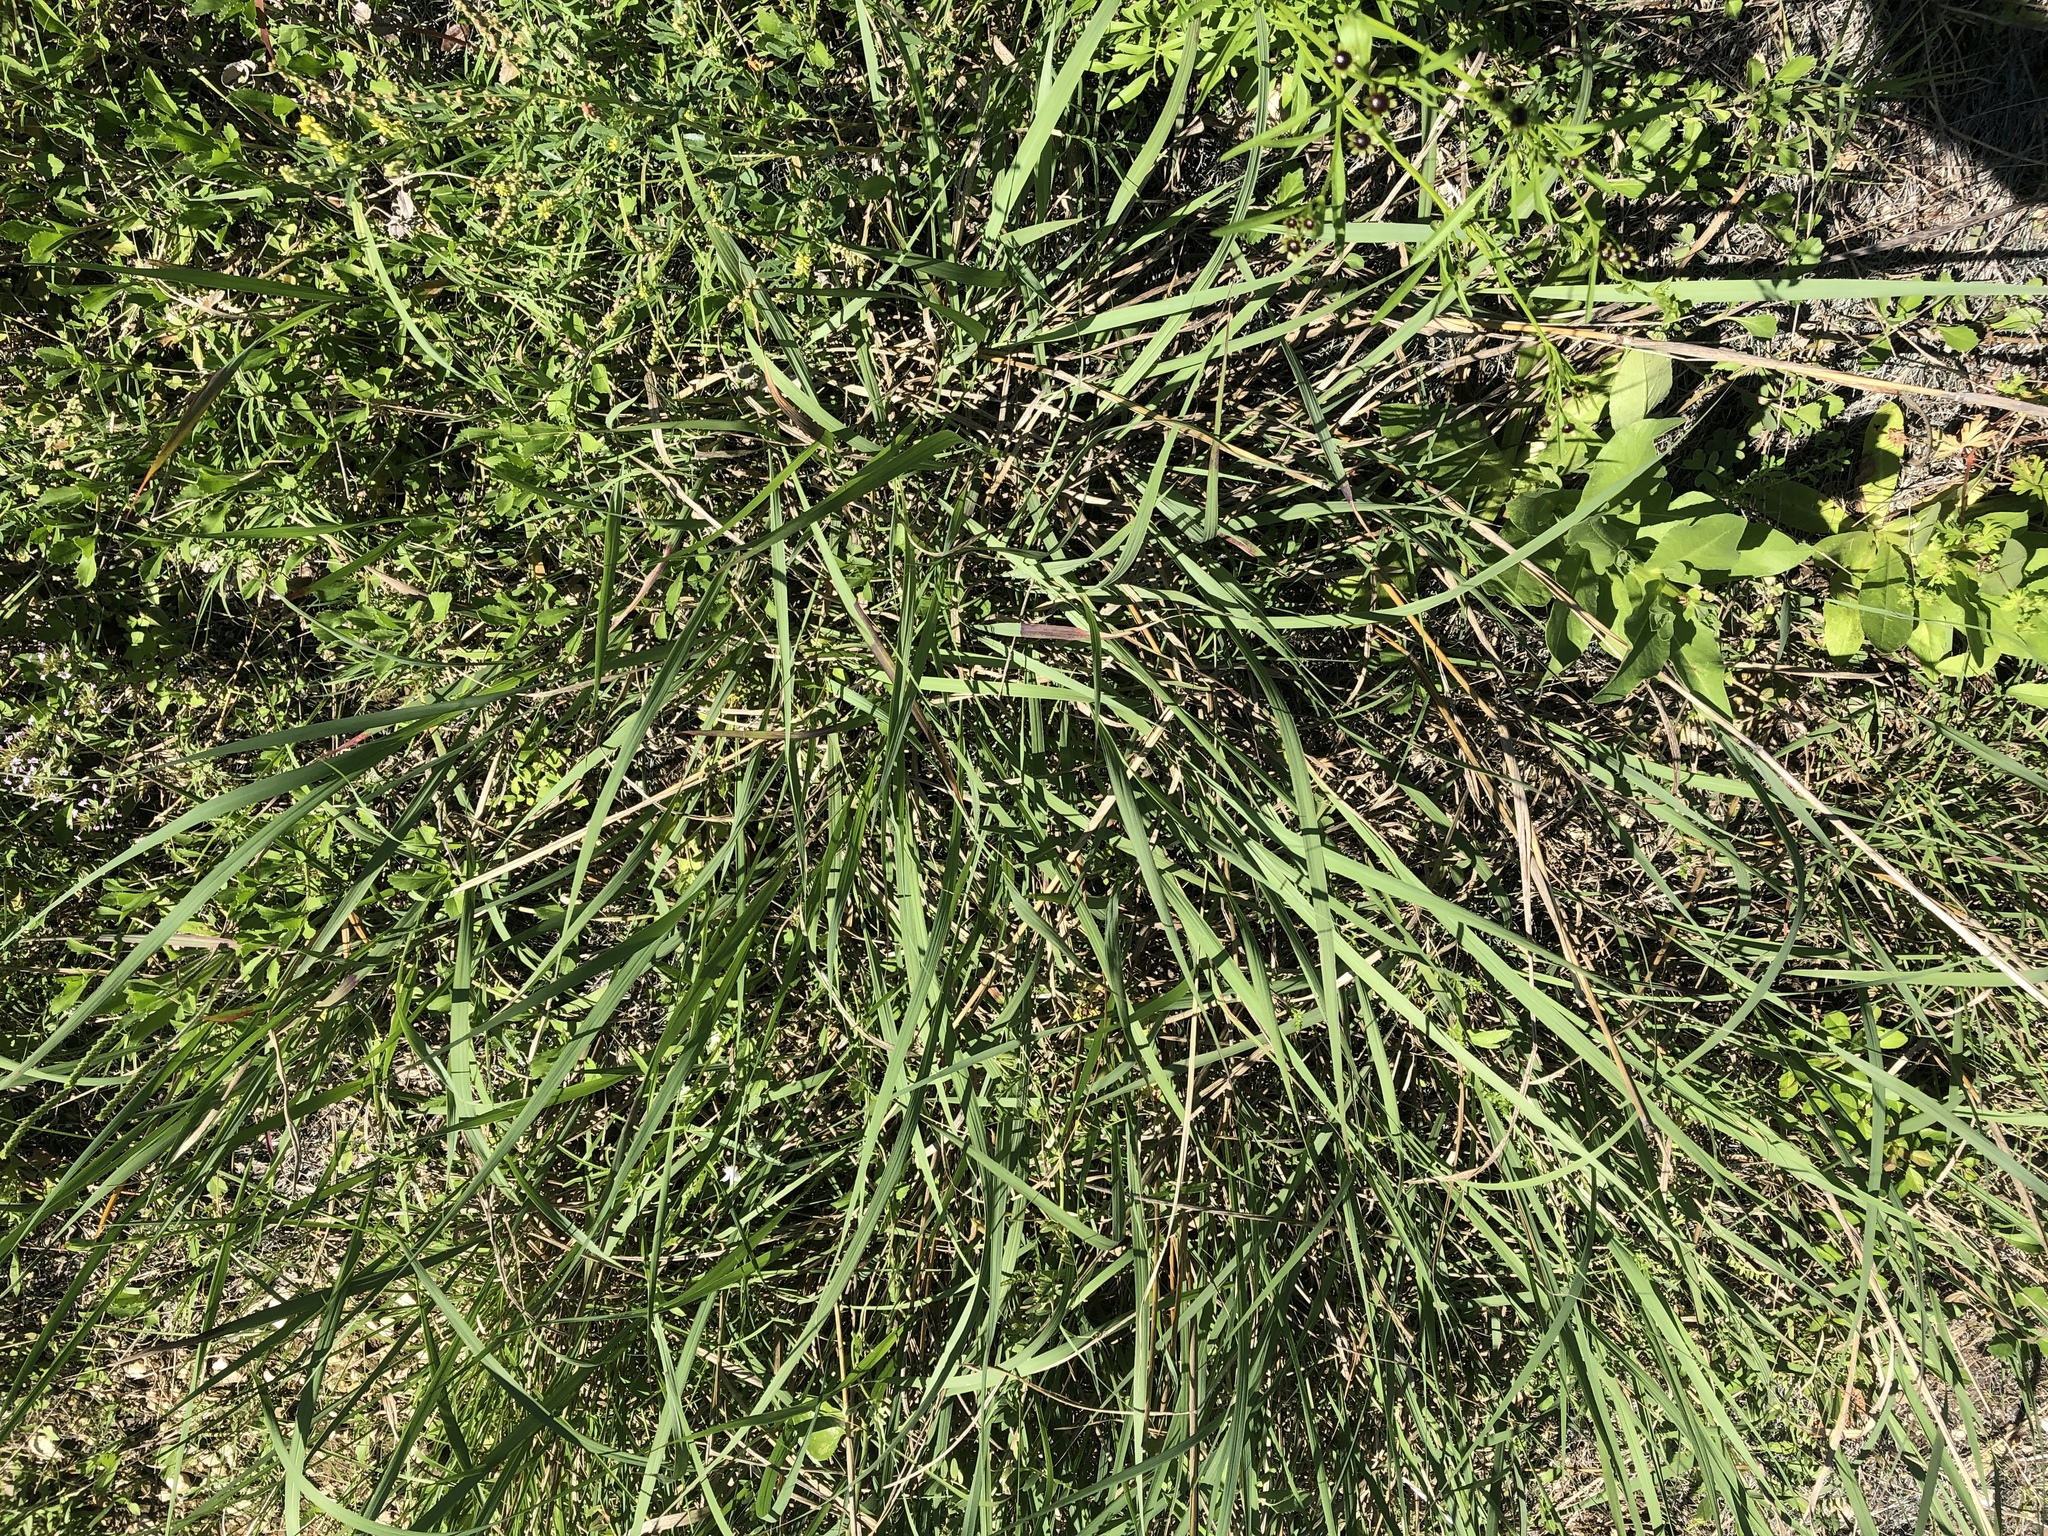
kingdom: Plantae
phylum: Tracheophyta
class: Liliopsida
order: Poales
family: Poaceae
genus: Sorghastrum
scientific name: Sorghastrum nutans
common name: Indian grass
